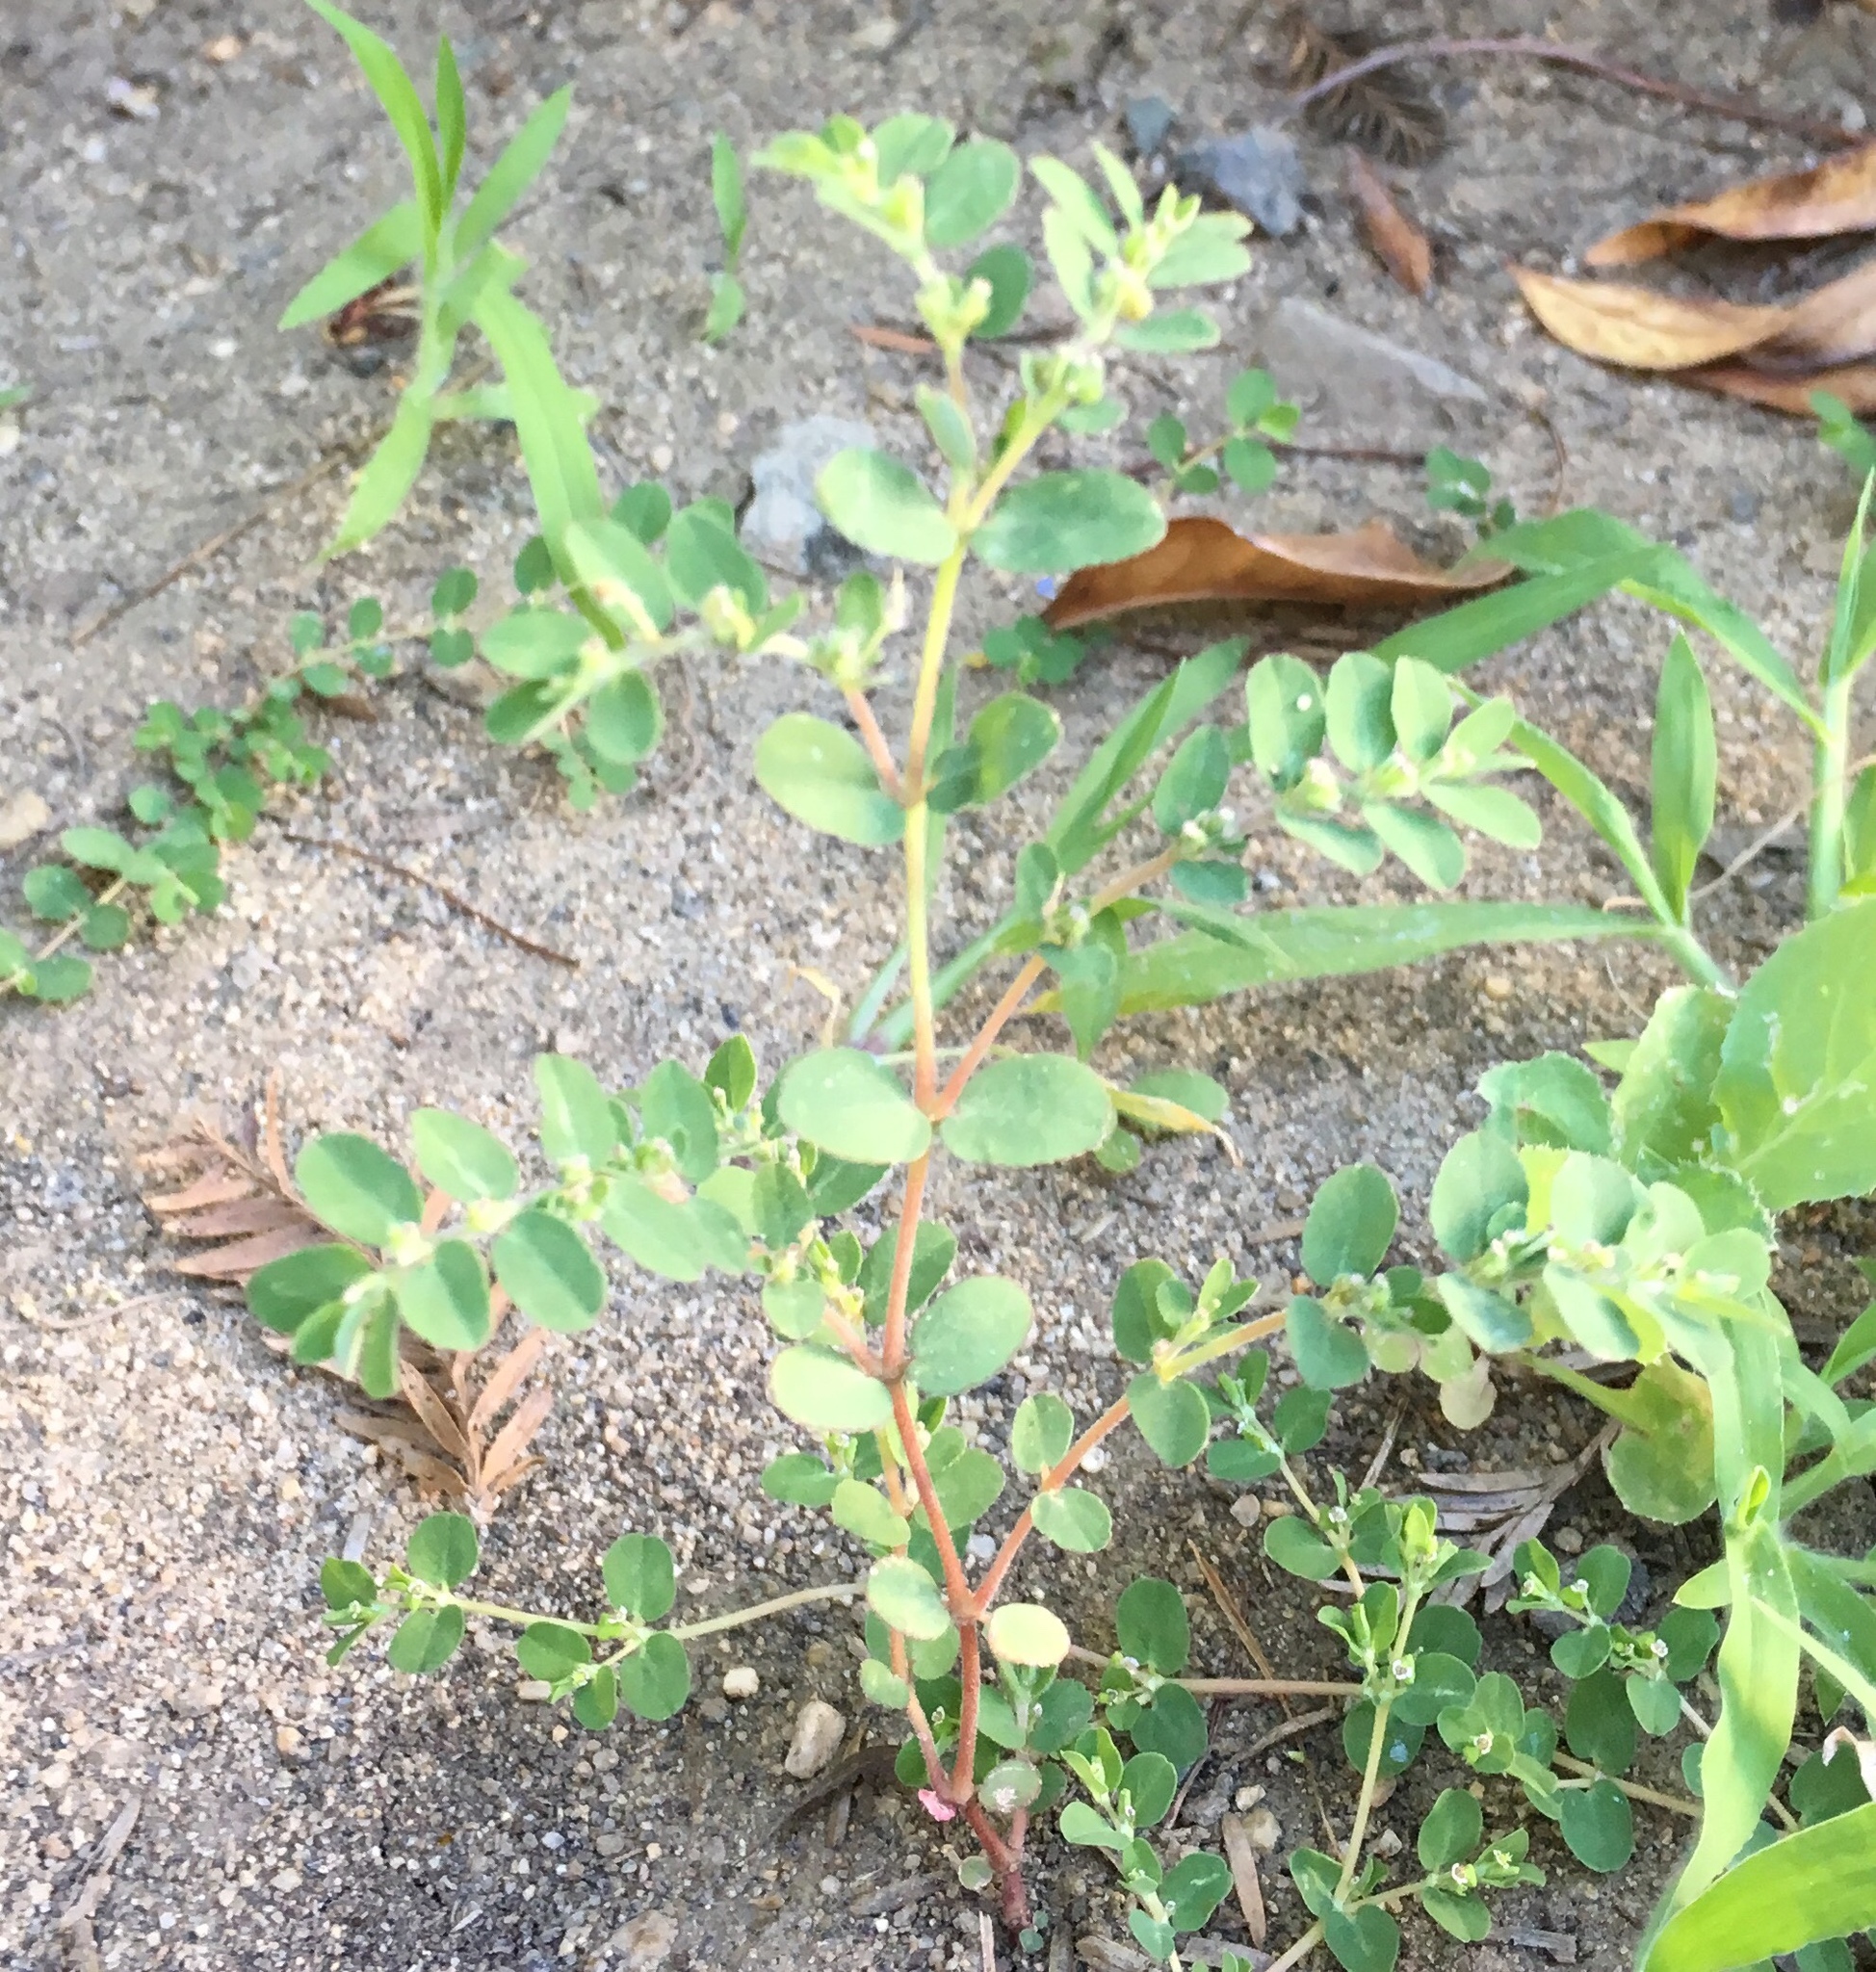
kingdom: Plantae
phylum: Tracheophyta
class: Magnoliopsida
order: Malpighiales
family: Euphorbiaceae
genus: Euphorbia
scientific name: Euphorbia prostrata
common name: Prostrate sandmat
